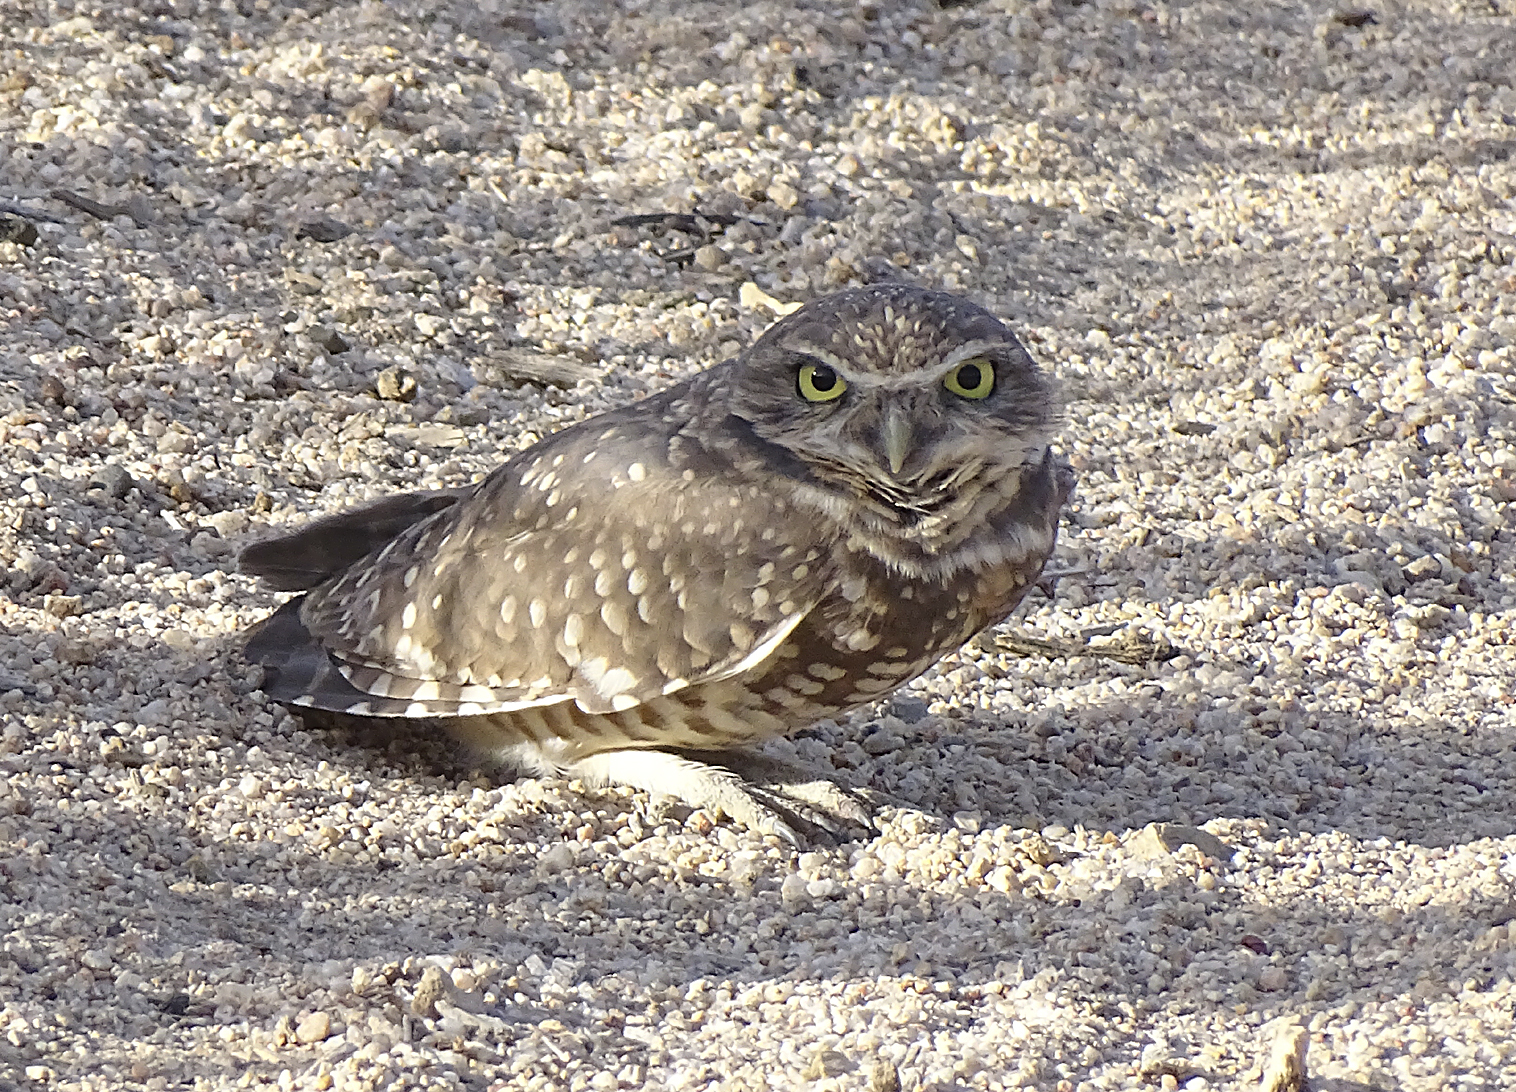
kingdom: Animalia
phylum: Chordata
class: Aves
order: Strigiformes
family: Strigidae
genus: Athene
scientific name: Athene cunicularia
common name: Burrowing owl
